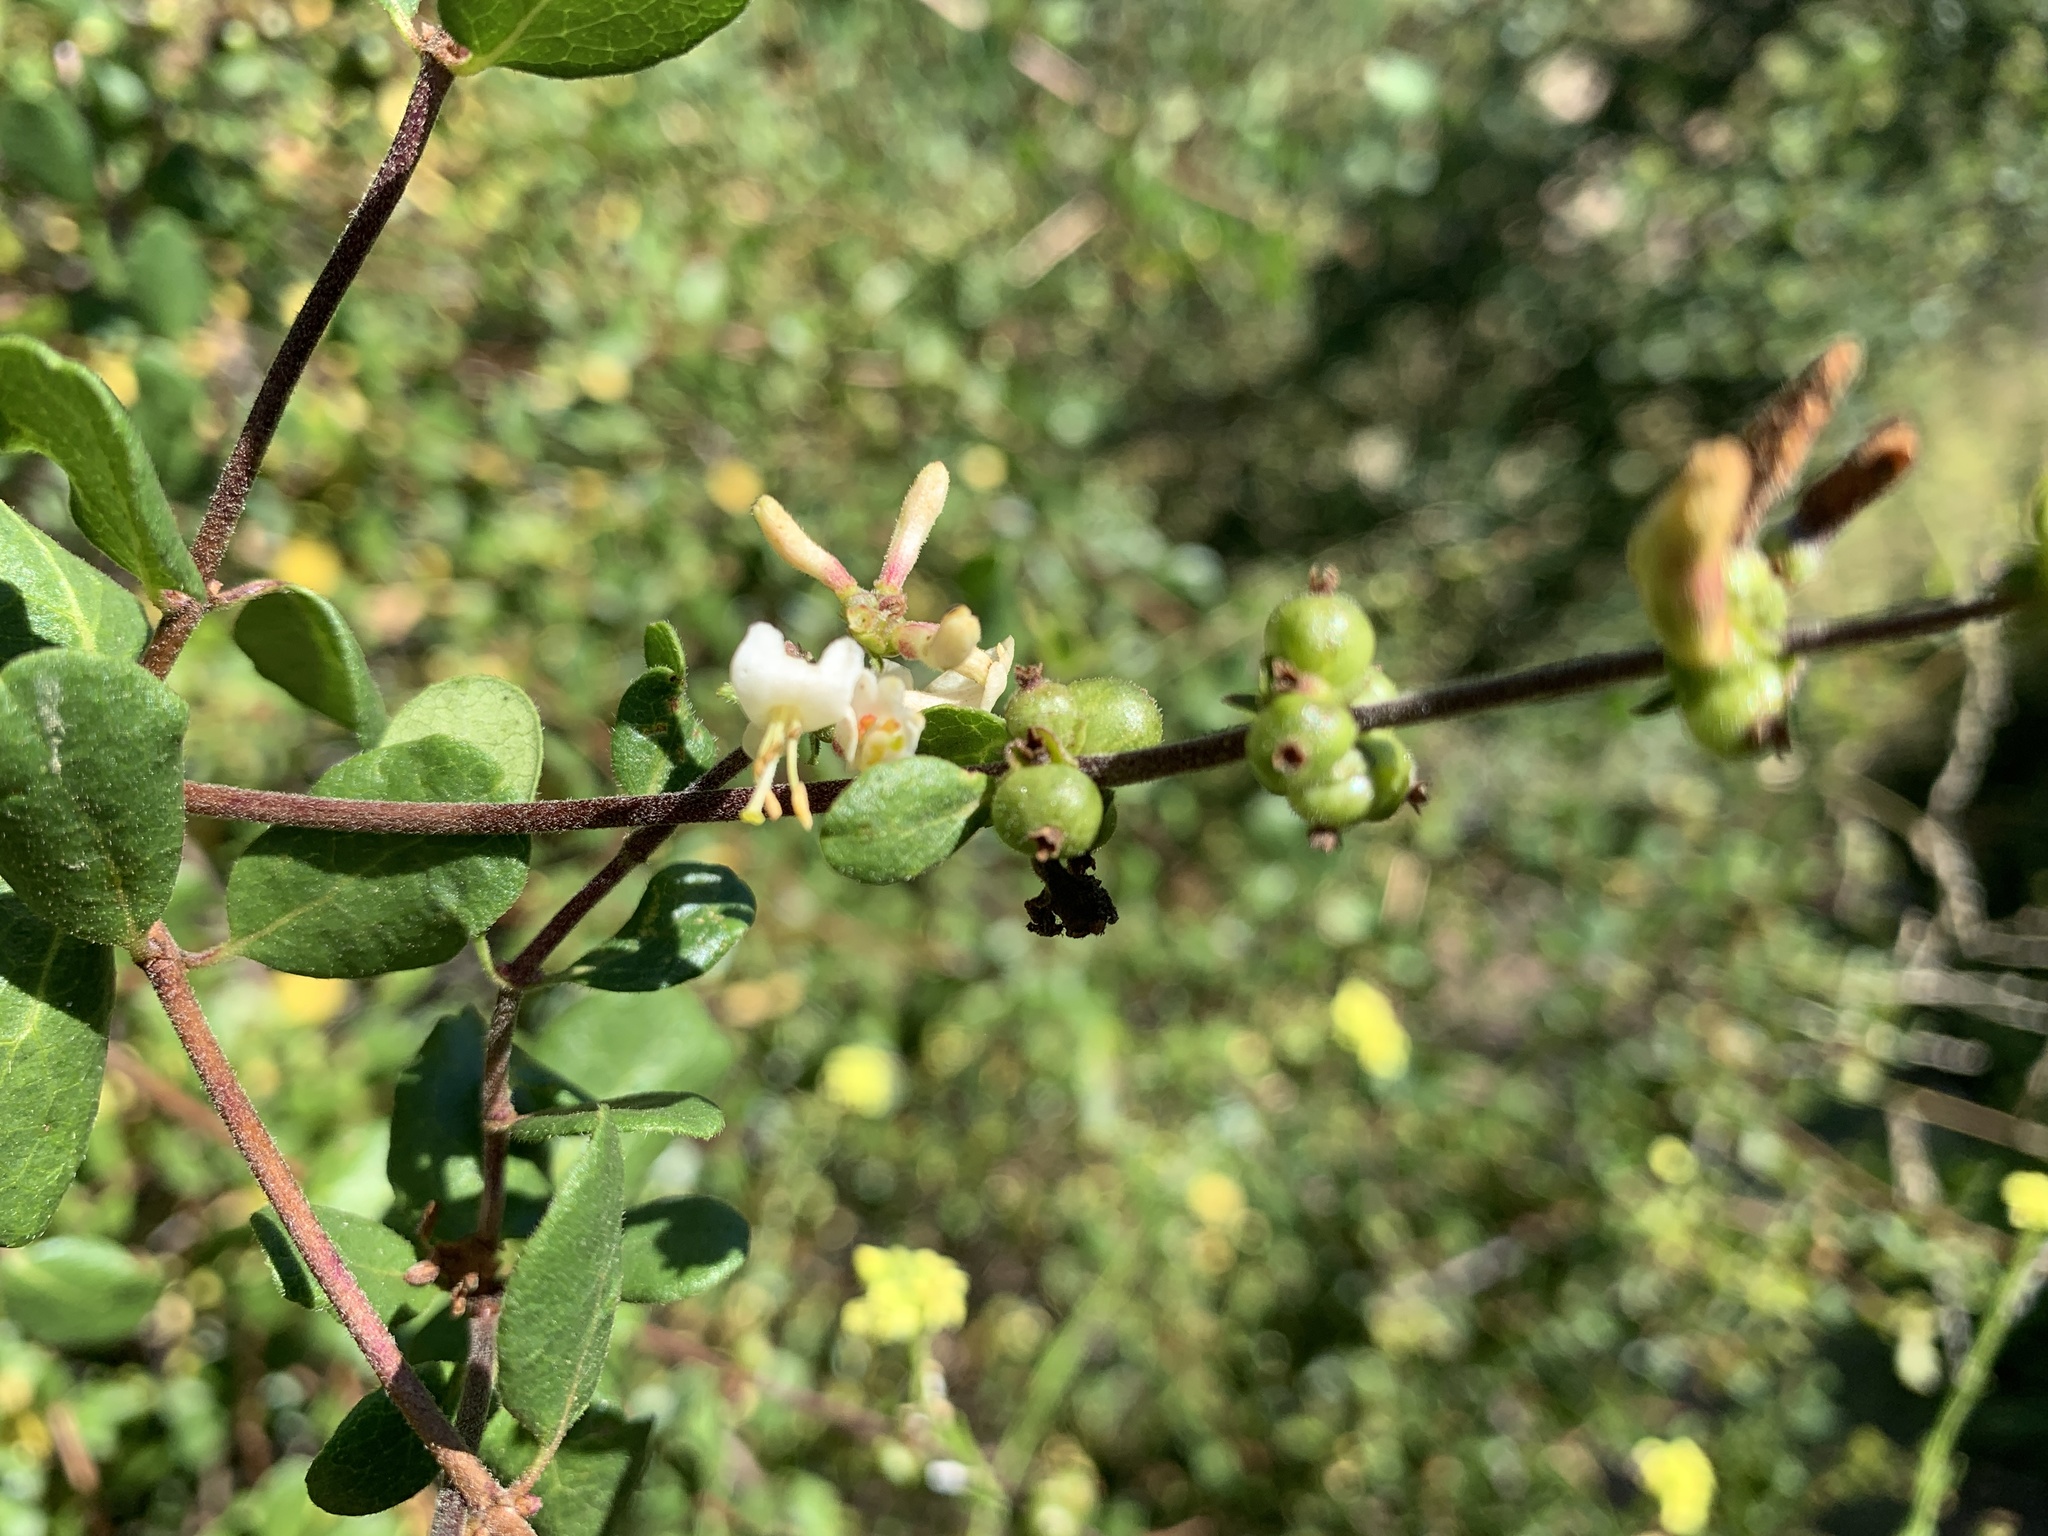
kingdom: Plantae
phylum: Tracheophyta
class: Magnoliopsida
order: Dipsacales
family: Caprifoliaceae
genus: Lonicera
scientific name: Lonicera subspicata
